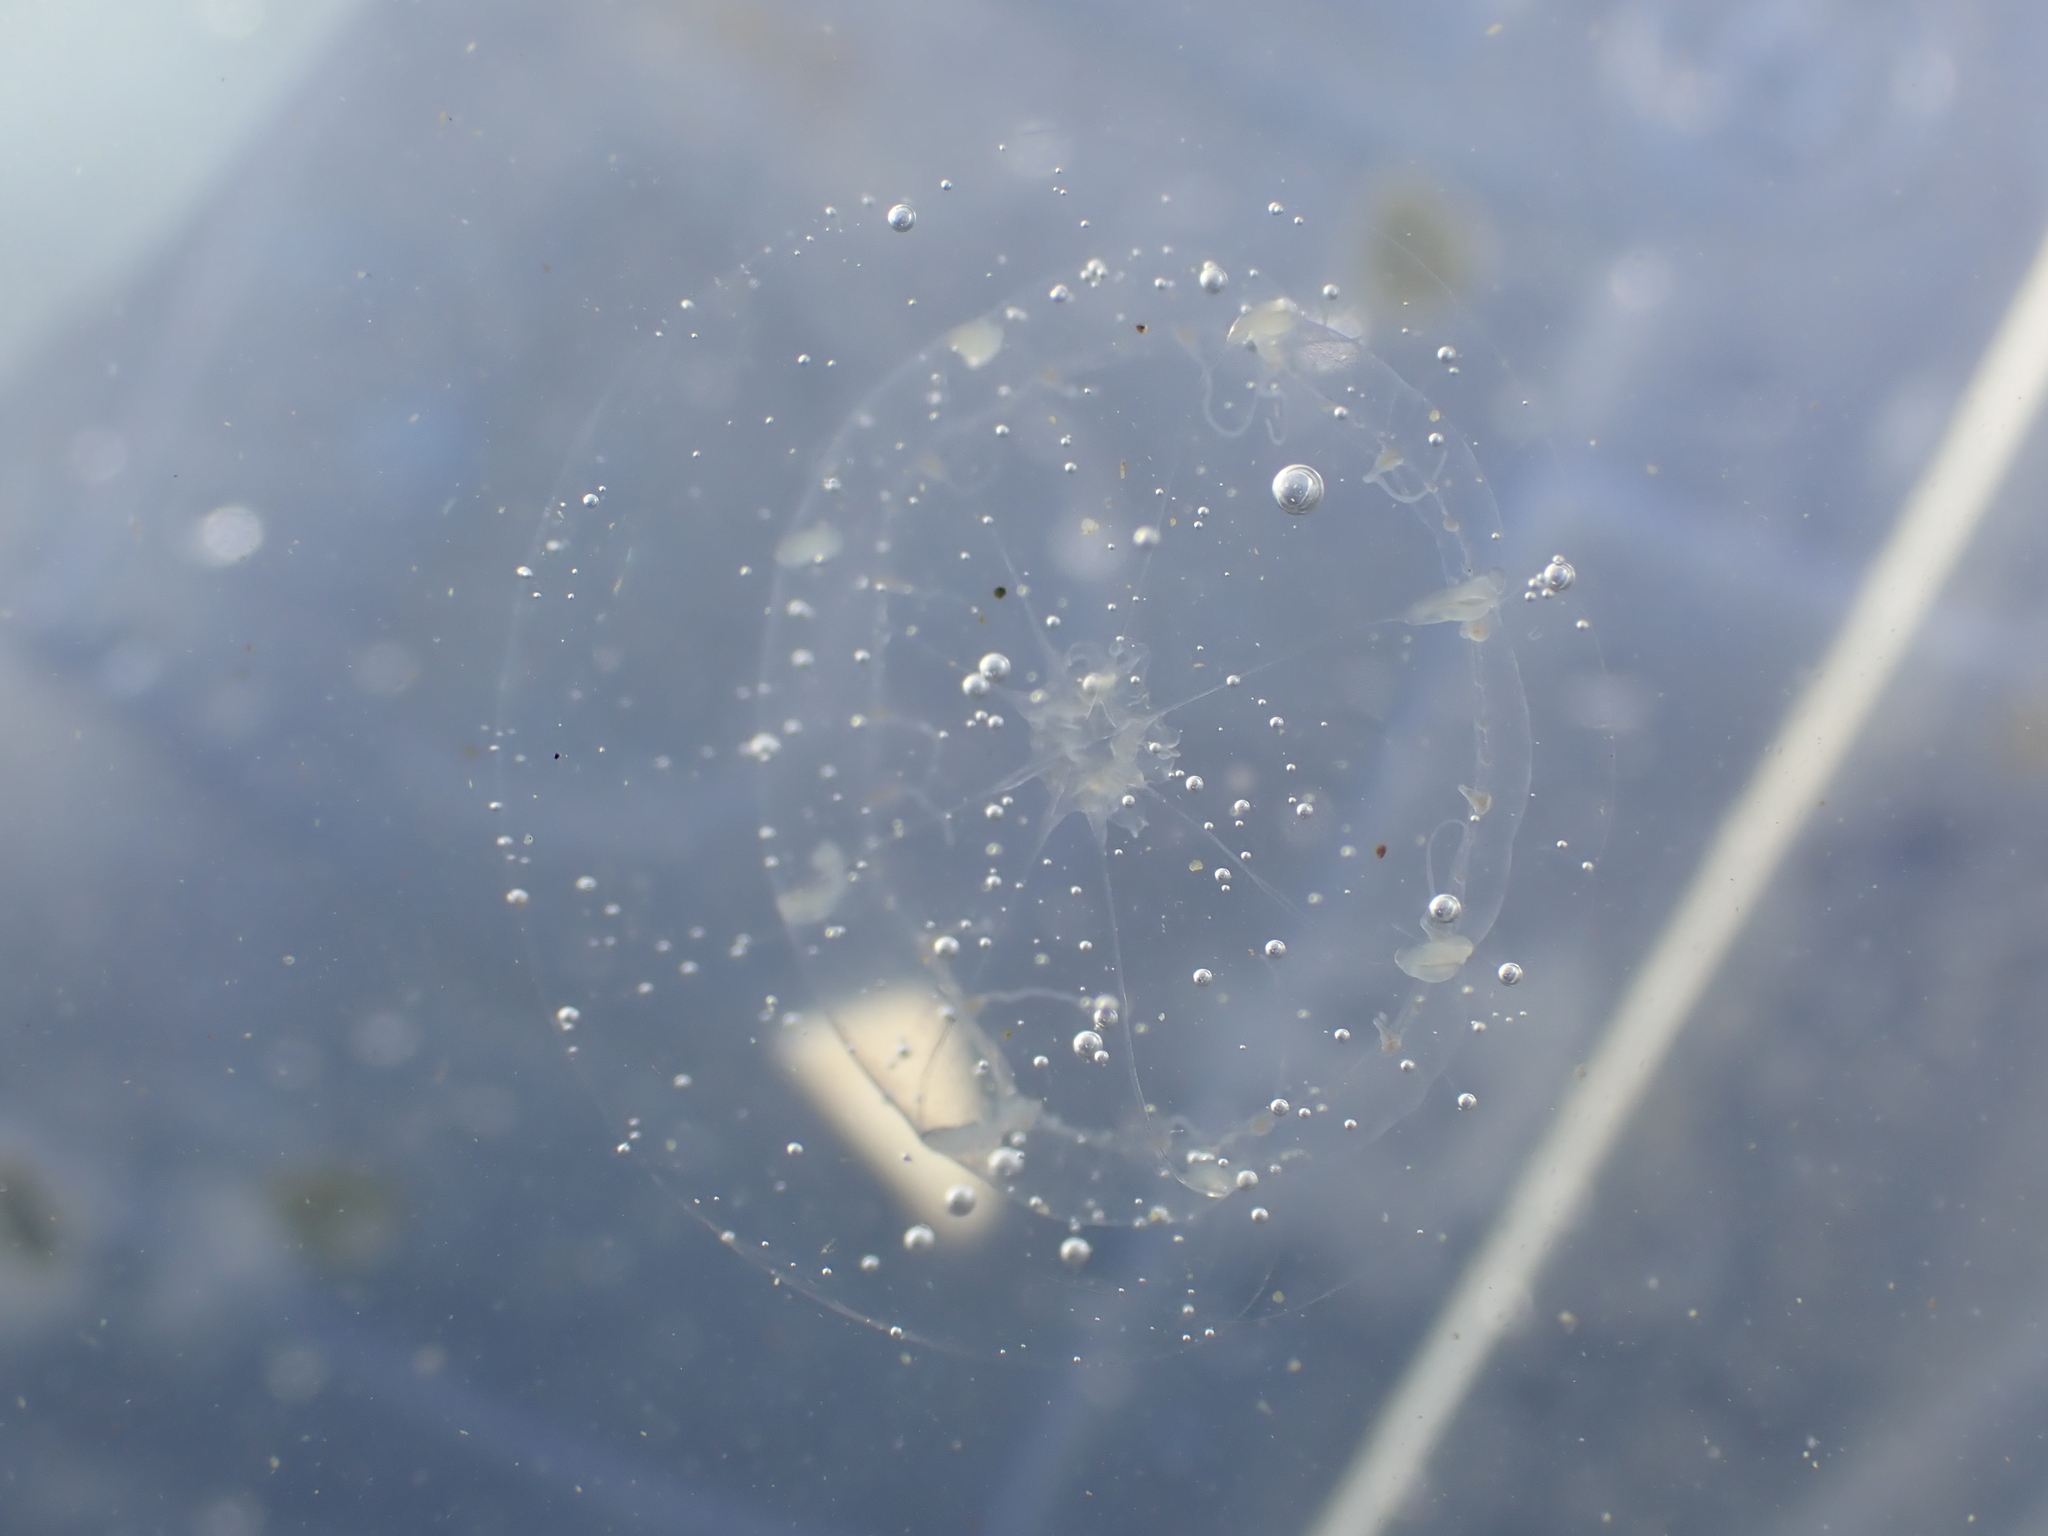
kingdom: Animalia
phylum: Cnidaria
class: Hydrozoa
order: Leptothecata
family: Malagazziidae
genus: Octophialucium
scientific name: Octophialucium indicum
